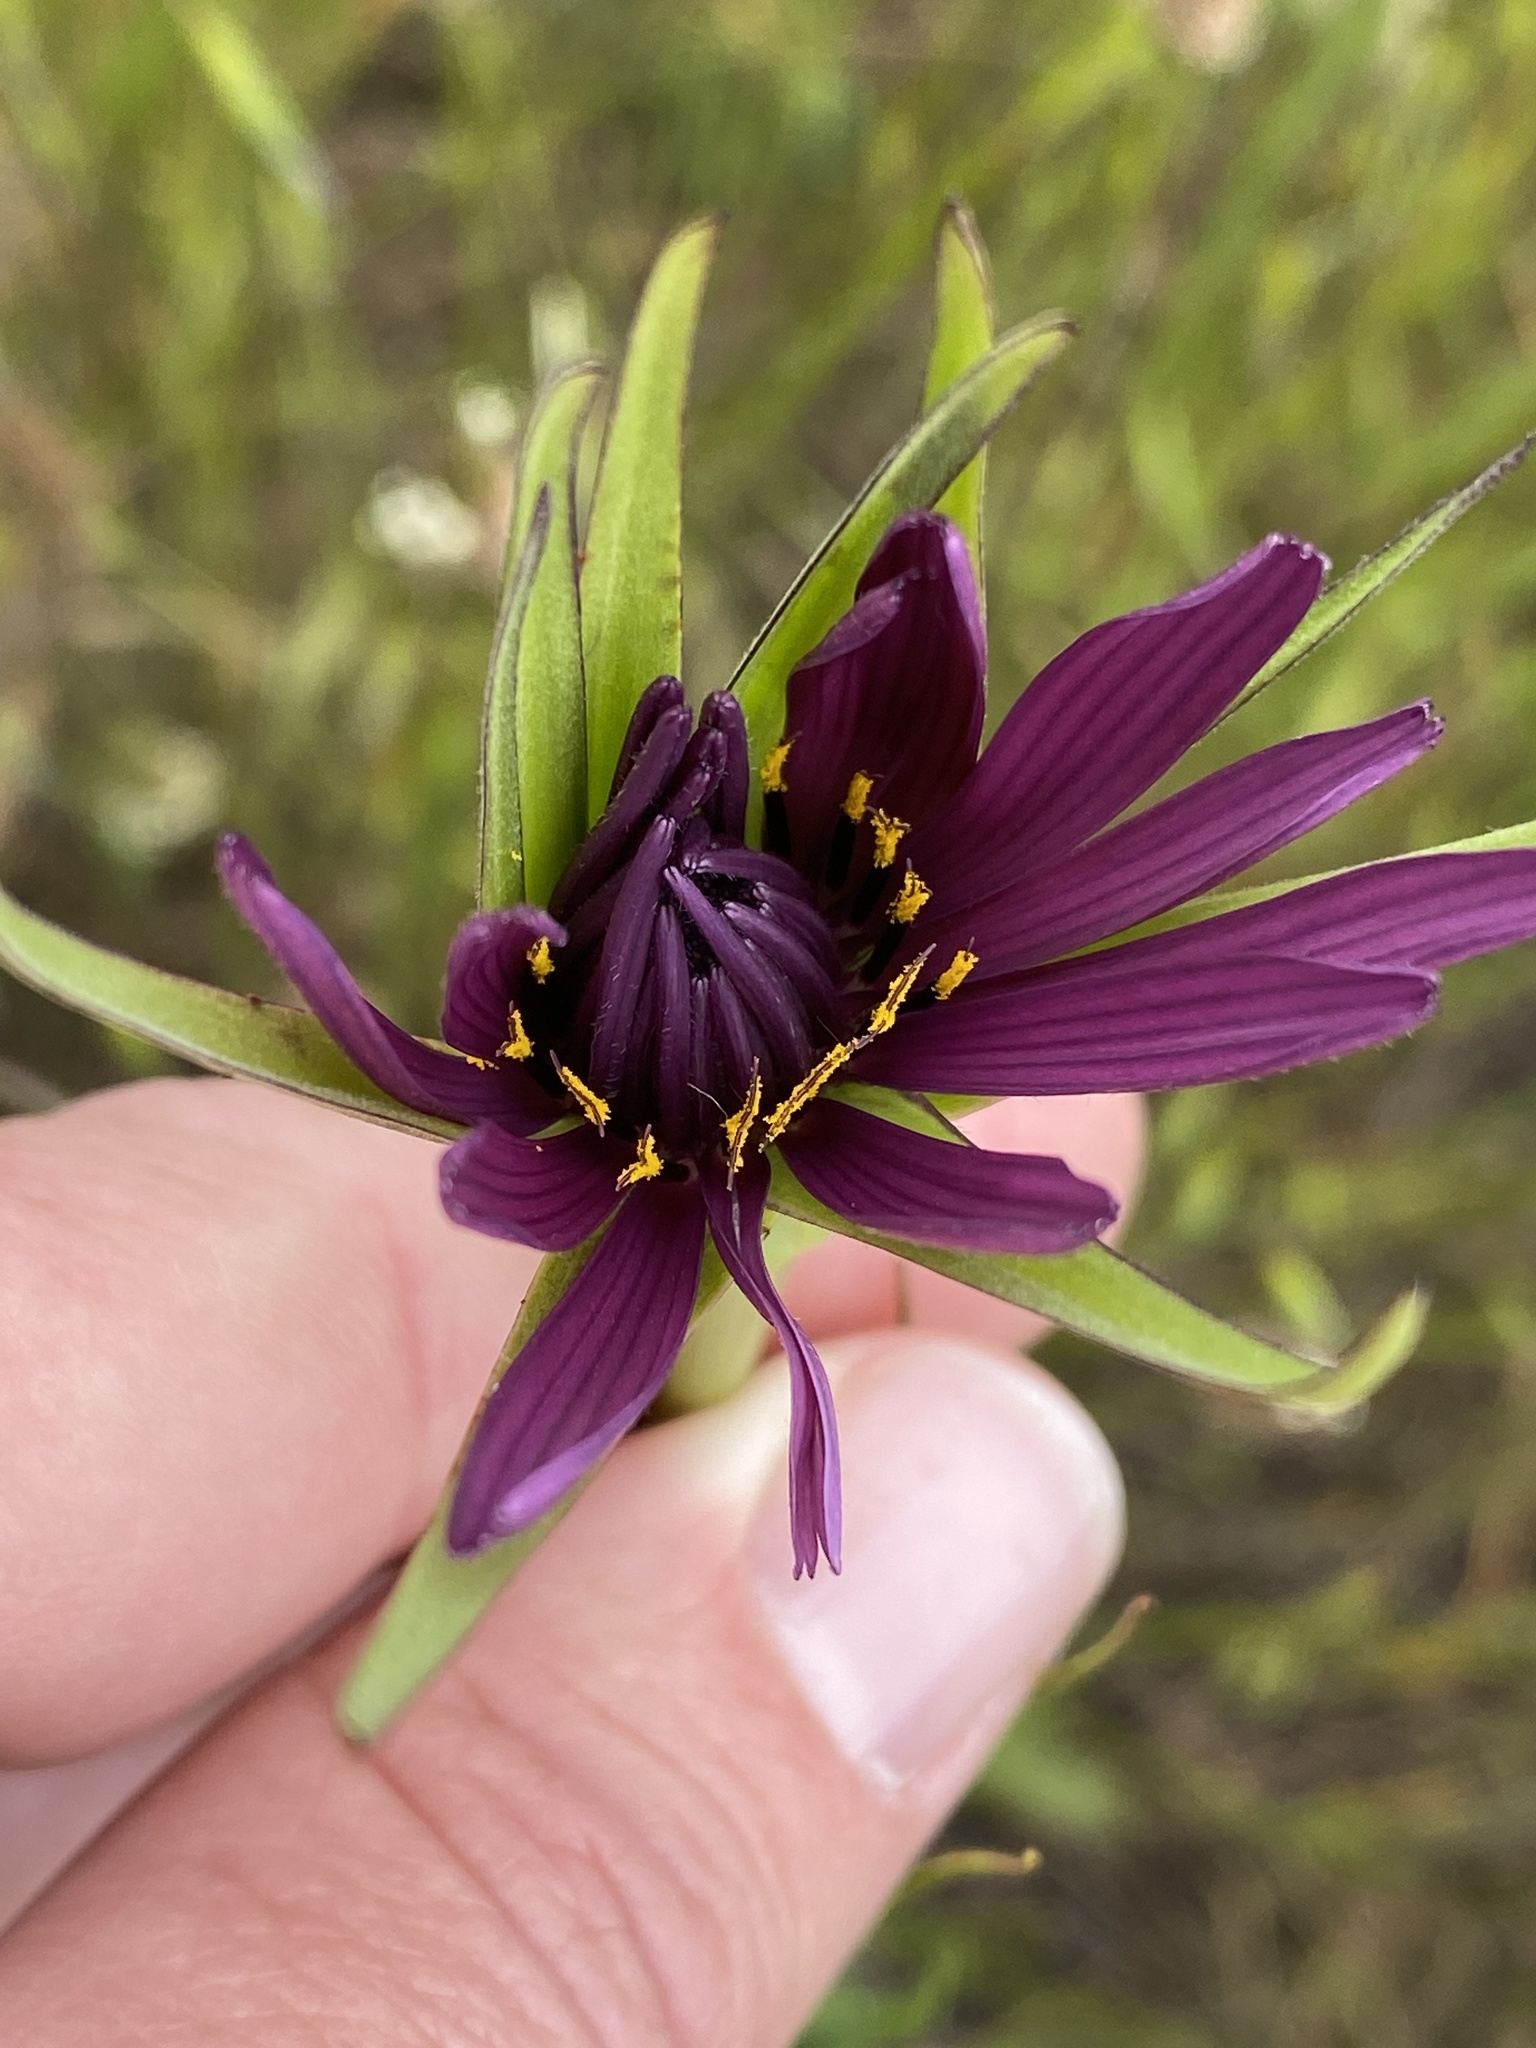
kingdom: Plantae
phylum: Tracheophyta
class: Magnoliopsida
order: Asterales
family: Asteraceae
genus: Tragopogon
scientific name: Tragopogon porrifolius
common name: Salsify
